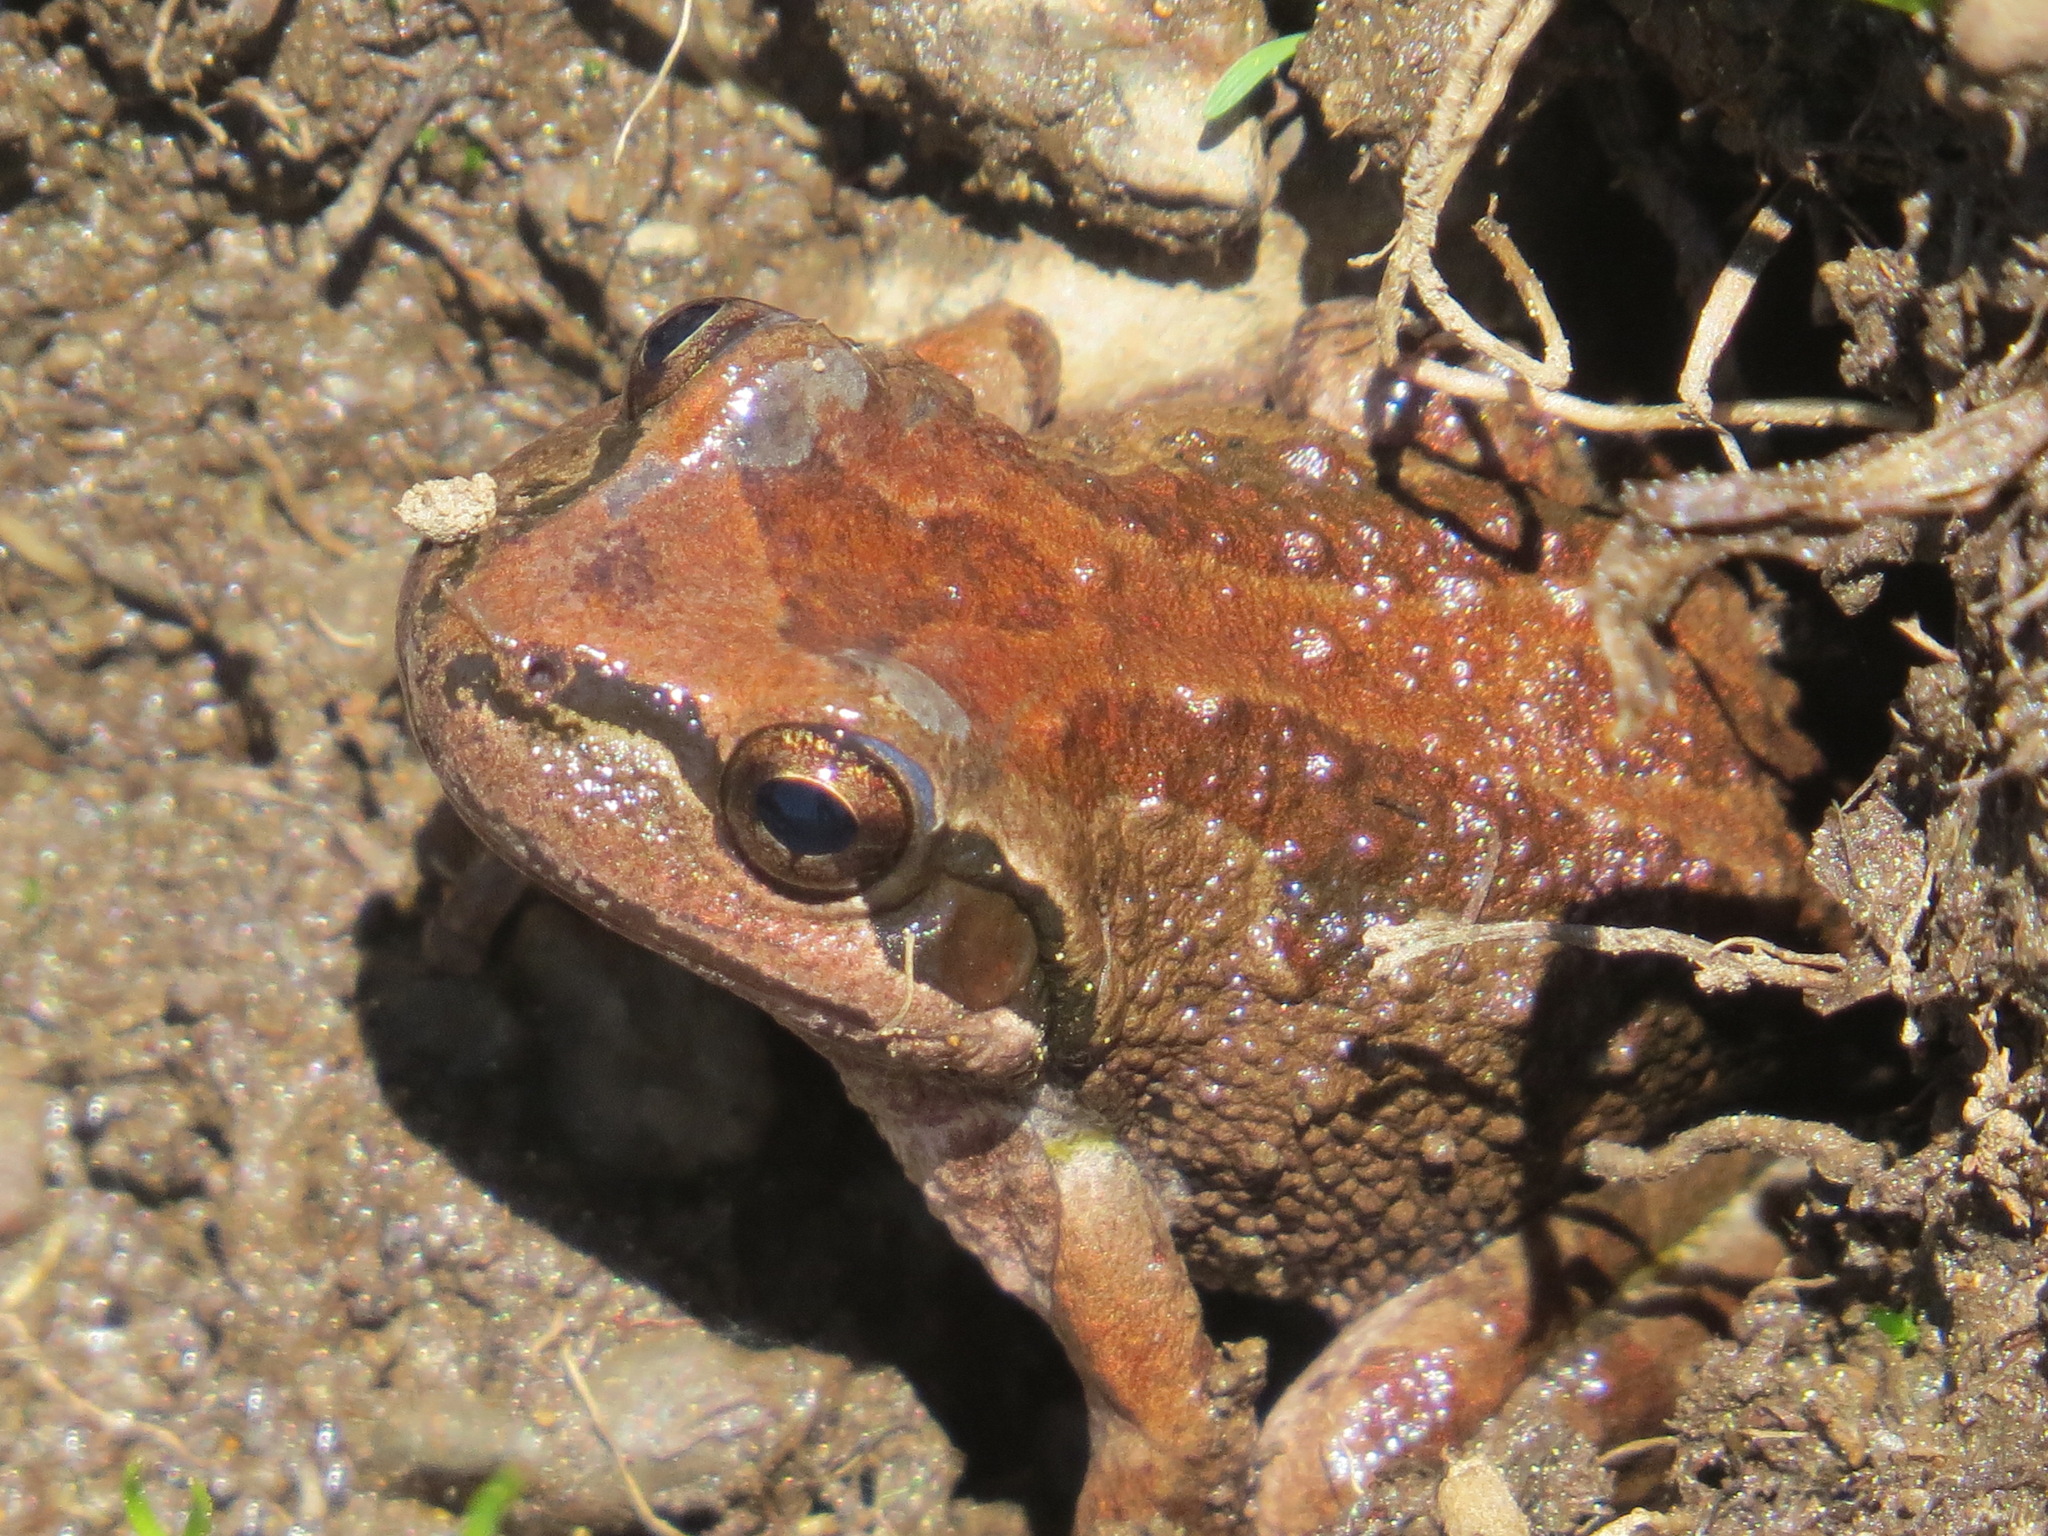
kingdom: Animalia
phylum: Chordata
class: Amphibia
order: Anura
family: Hylidae
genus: Pseudacris
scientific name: Pseudacris regilla
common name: Pacific chorus frog
